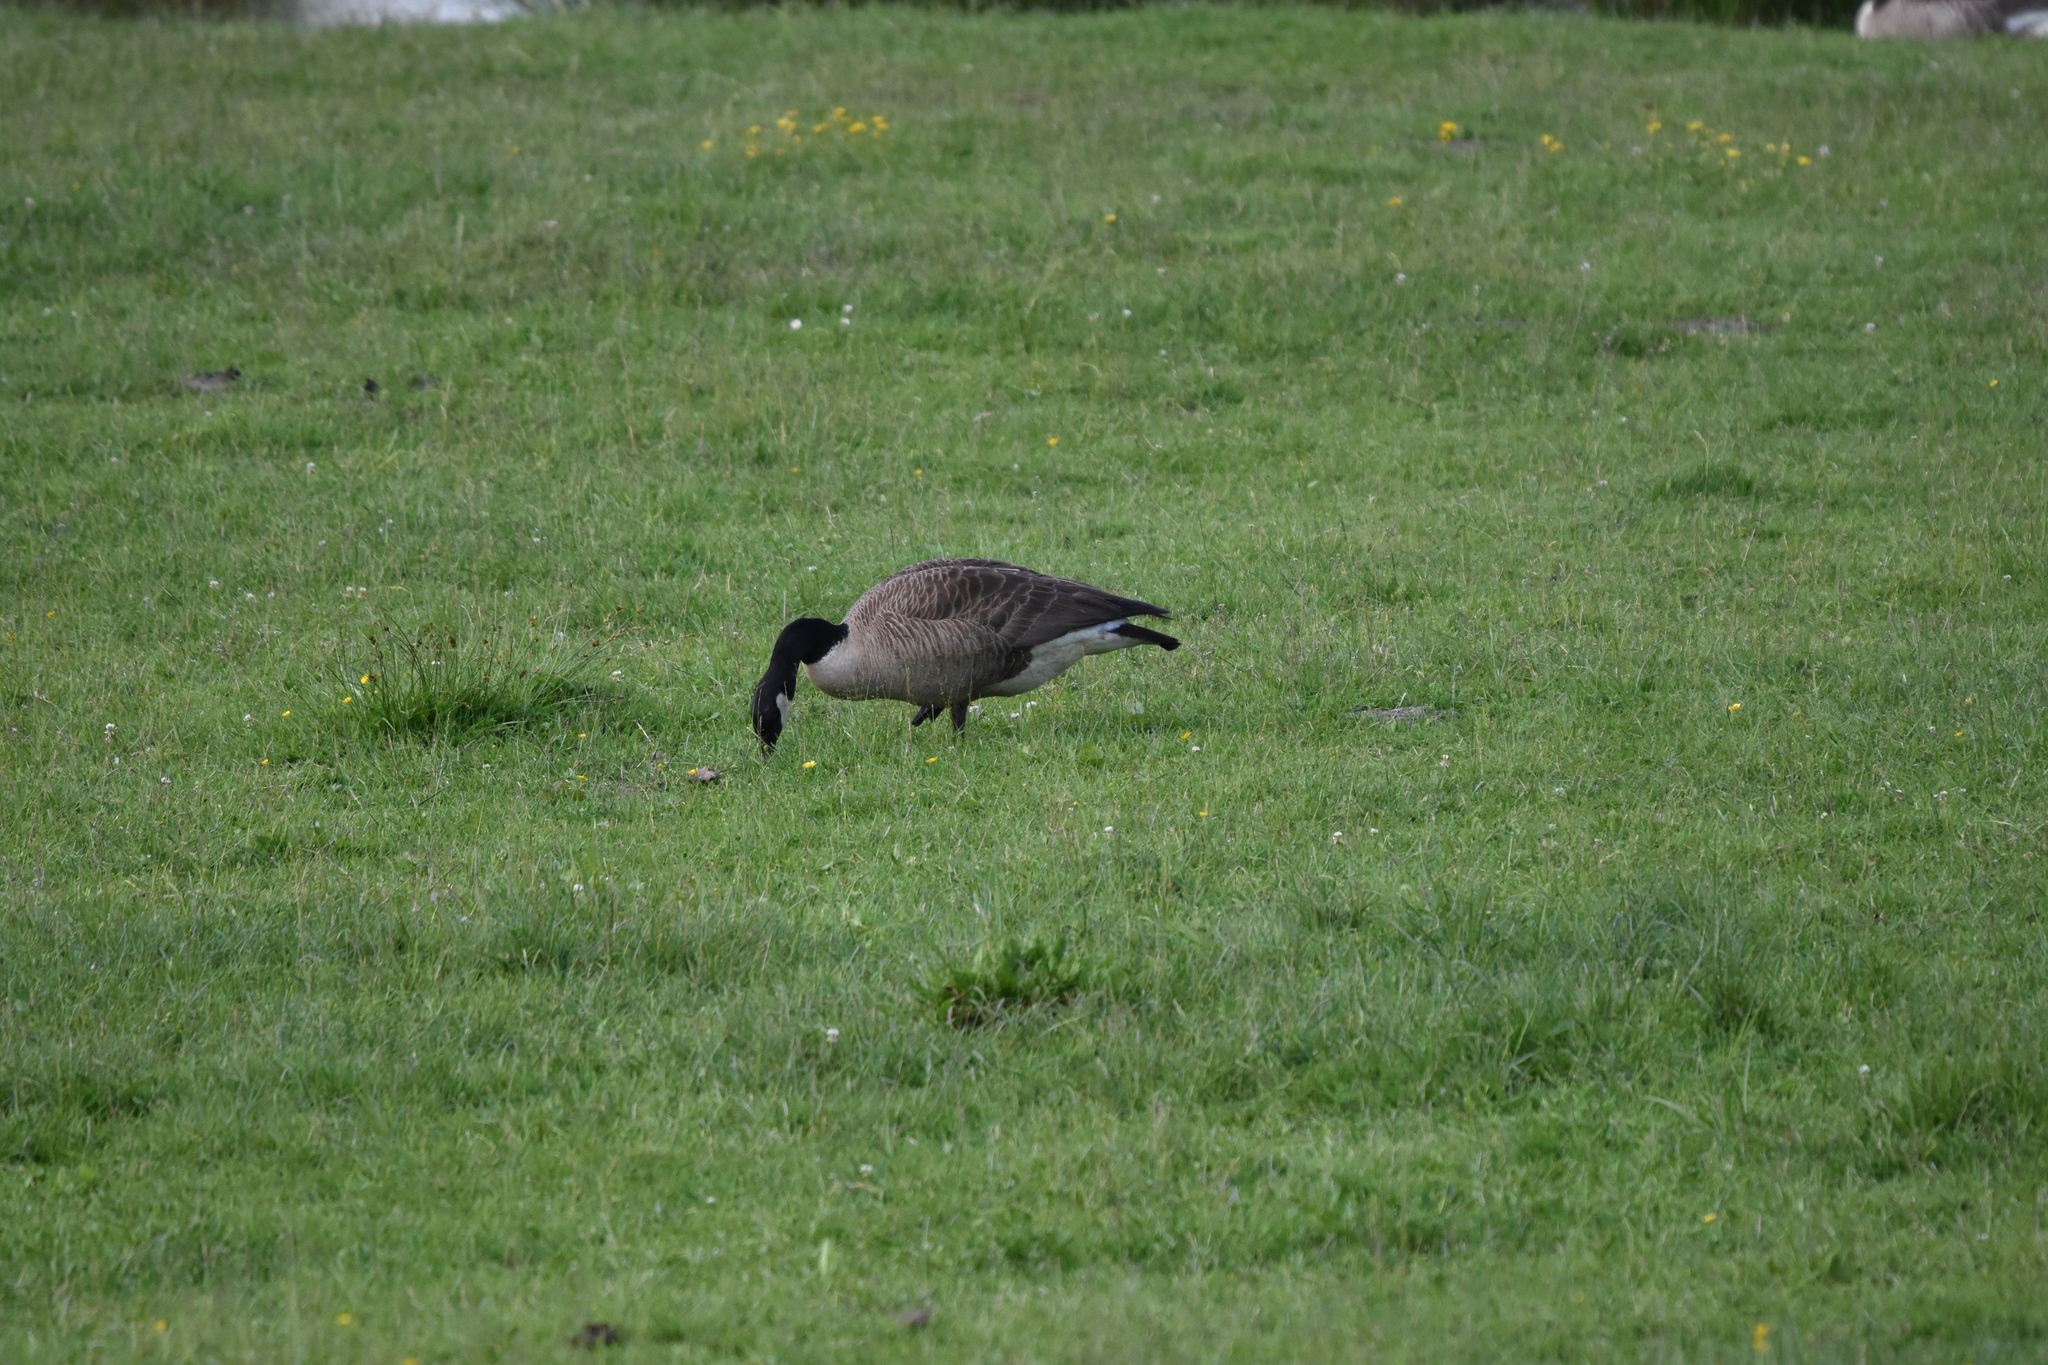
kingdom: Animalia
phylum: Chordata
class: Aves
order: Anseriformes
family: Anatidae
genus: Branta
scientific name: Branta canadensis
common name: Canada goose
